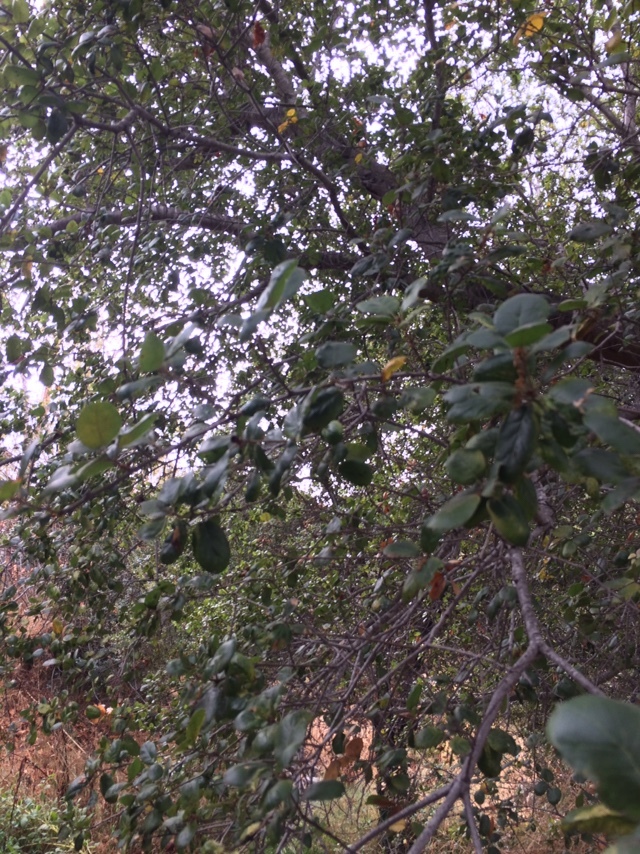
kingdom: Plantae
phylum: Tracheophyta
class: Magnoliopsida
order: Fagales
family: Fagaceae
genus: Quercus
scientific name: Quercus agrifolia
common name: California live oak
